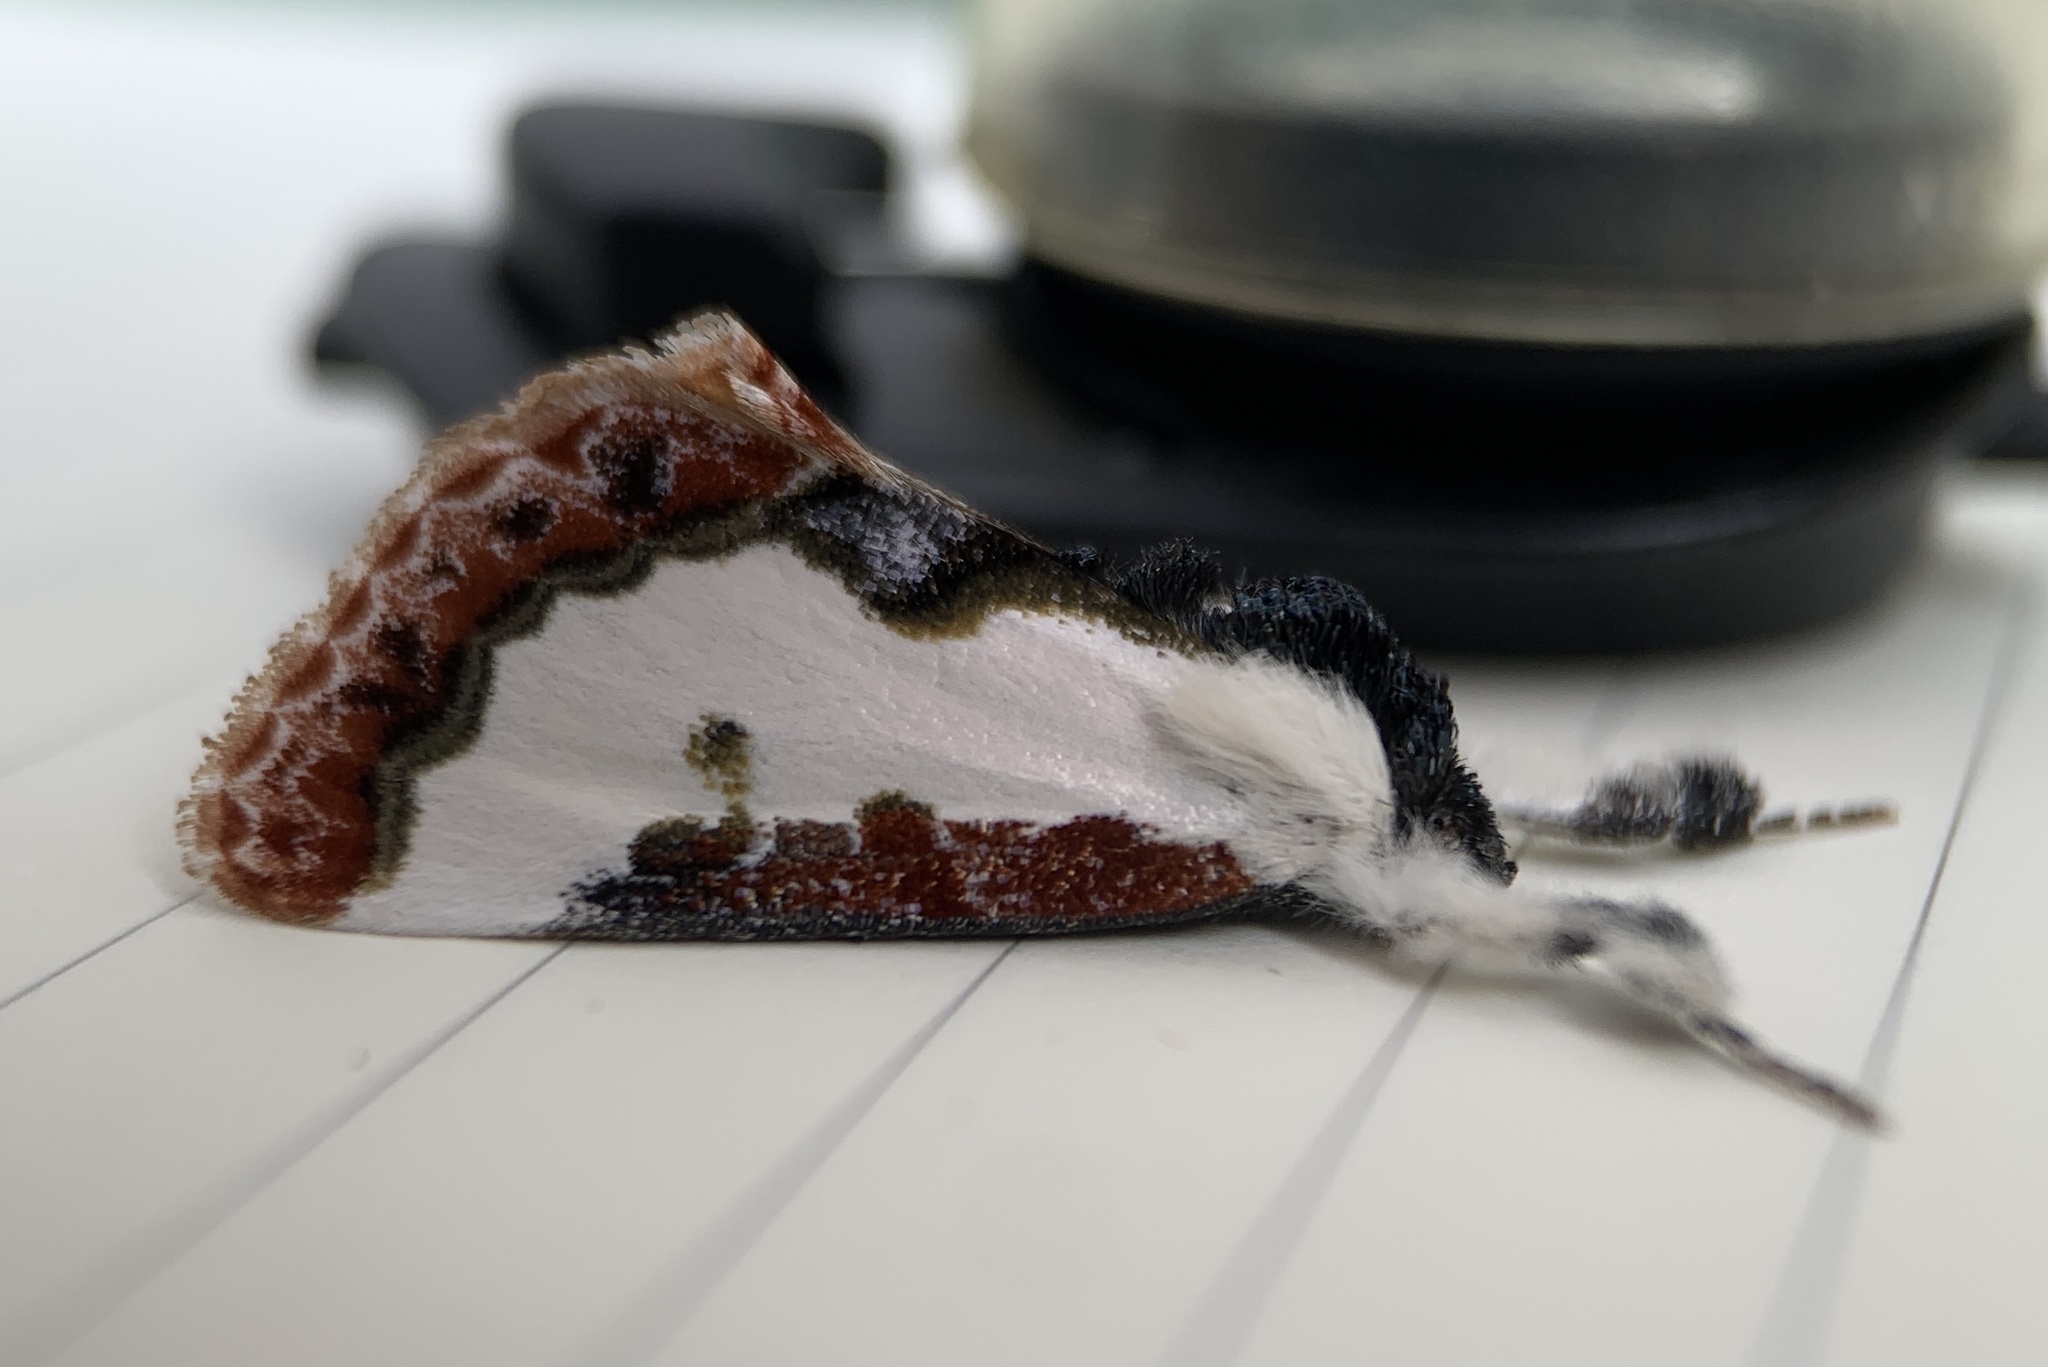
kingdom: Animalia
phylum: Arthropoda
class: Insecta
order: Lepidoptera
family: Noctuidae
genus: Eudryas
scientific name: Eudryas unio
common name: Pearly wood-nymph
